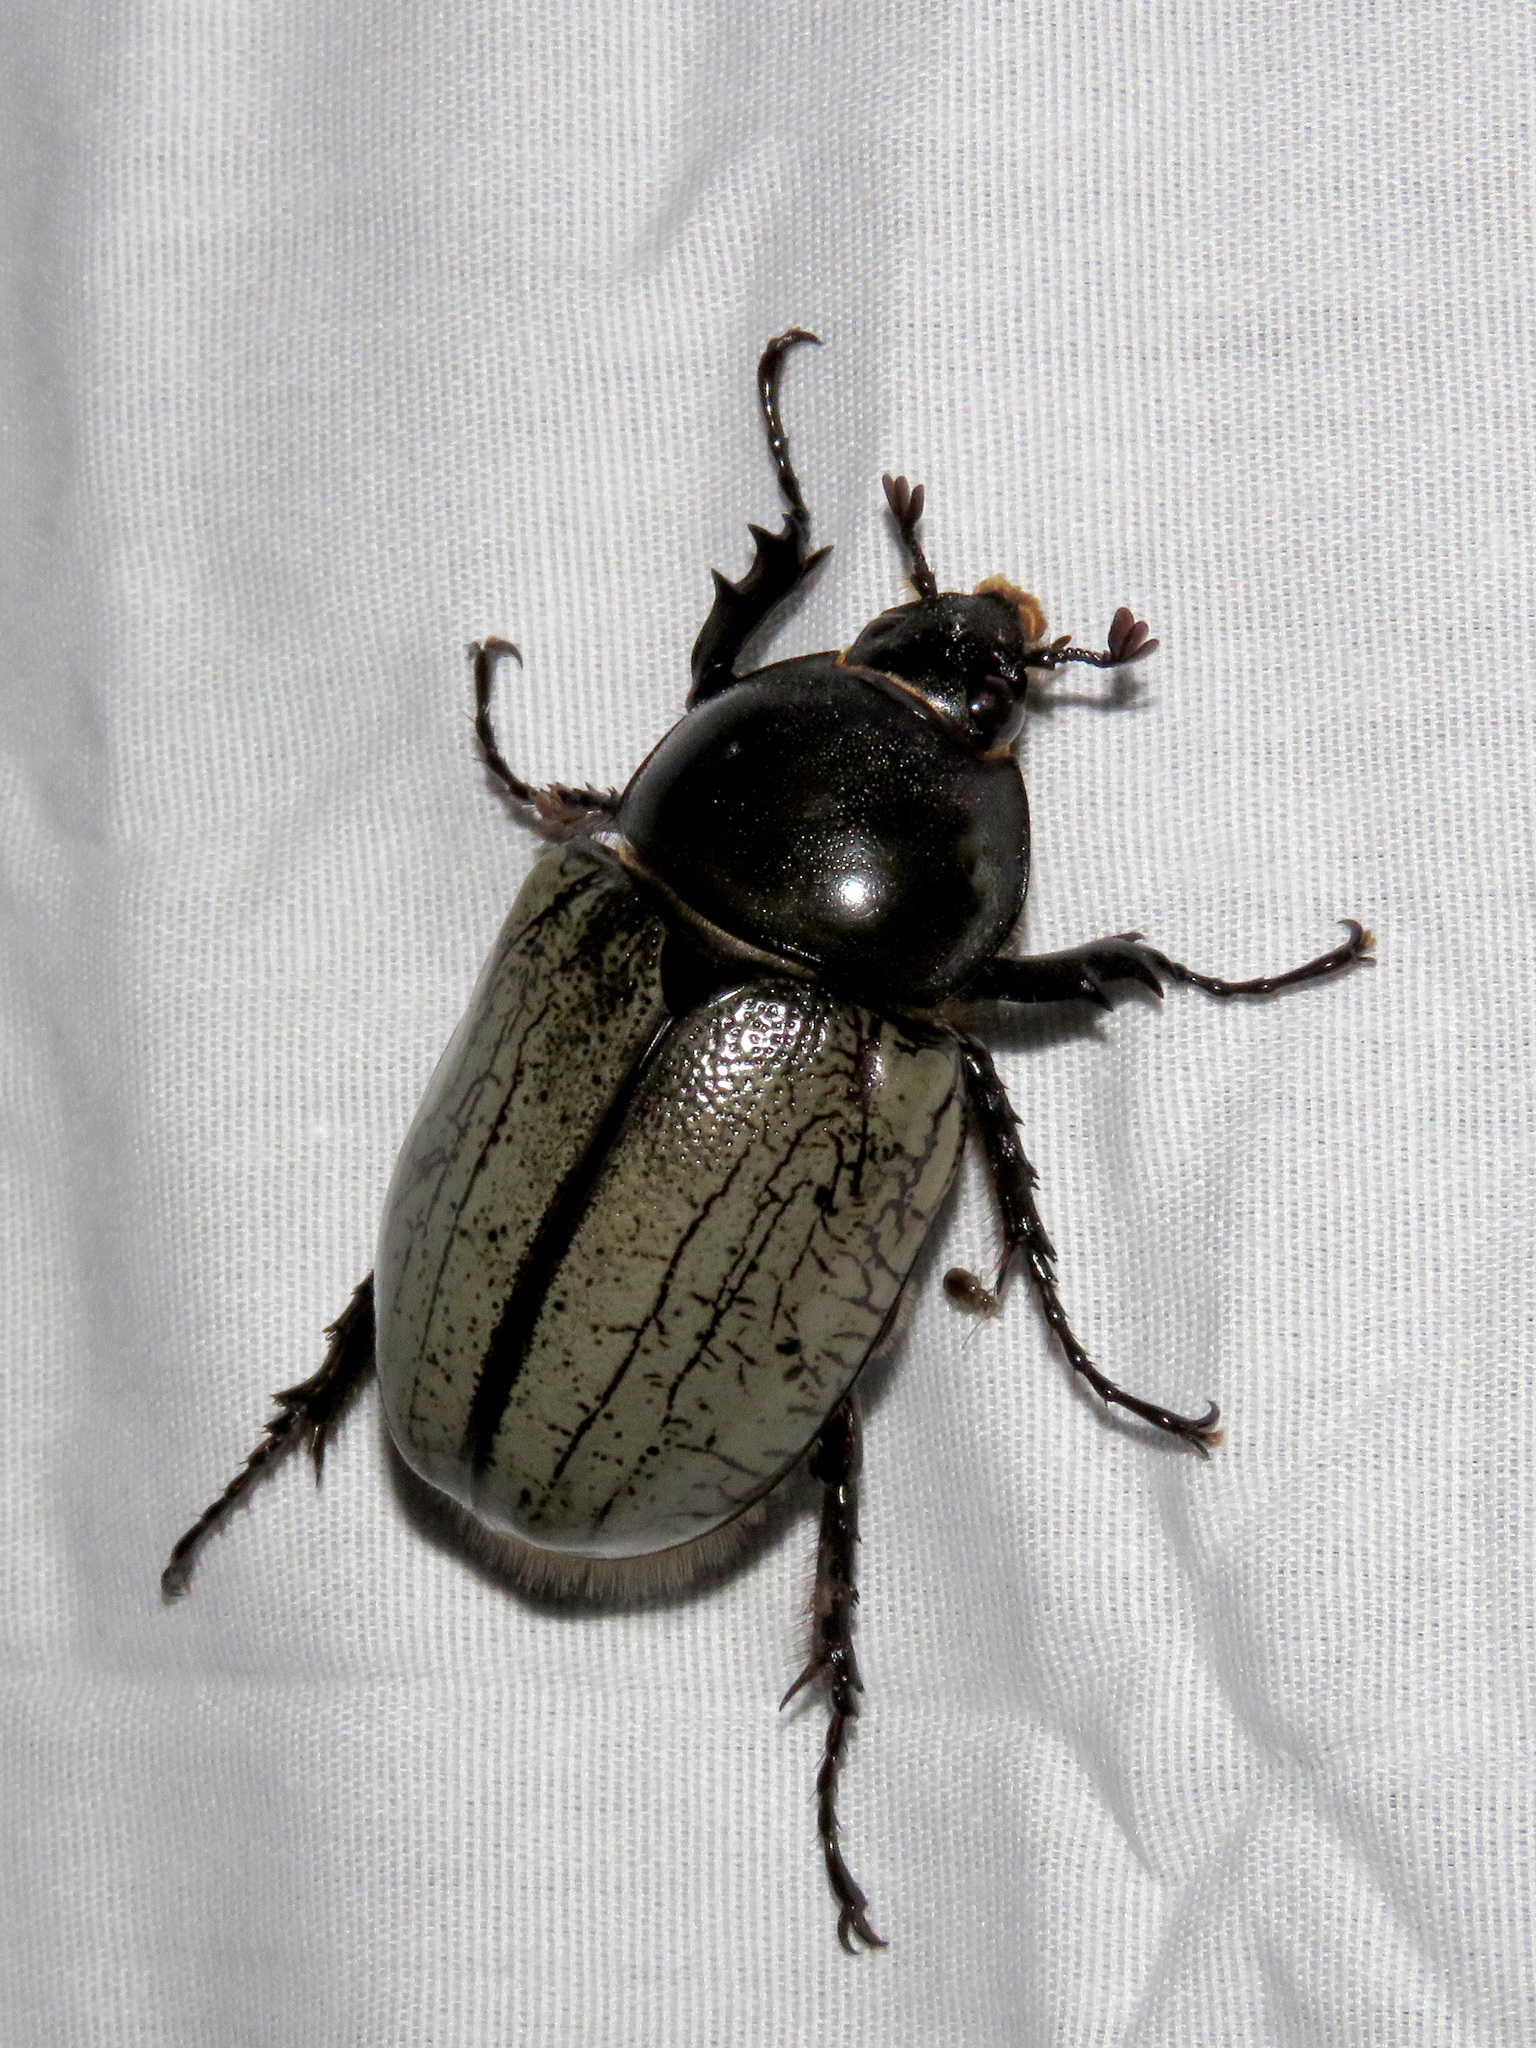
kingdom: Animalia
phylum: Arthropoda
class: Insecta
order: Coleoptera
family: Scarabaeidae
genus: Dynastes
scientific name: Dynastes grantii
